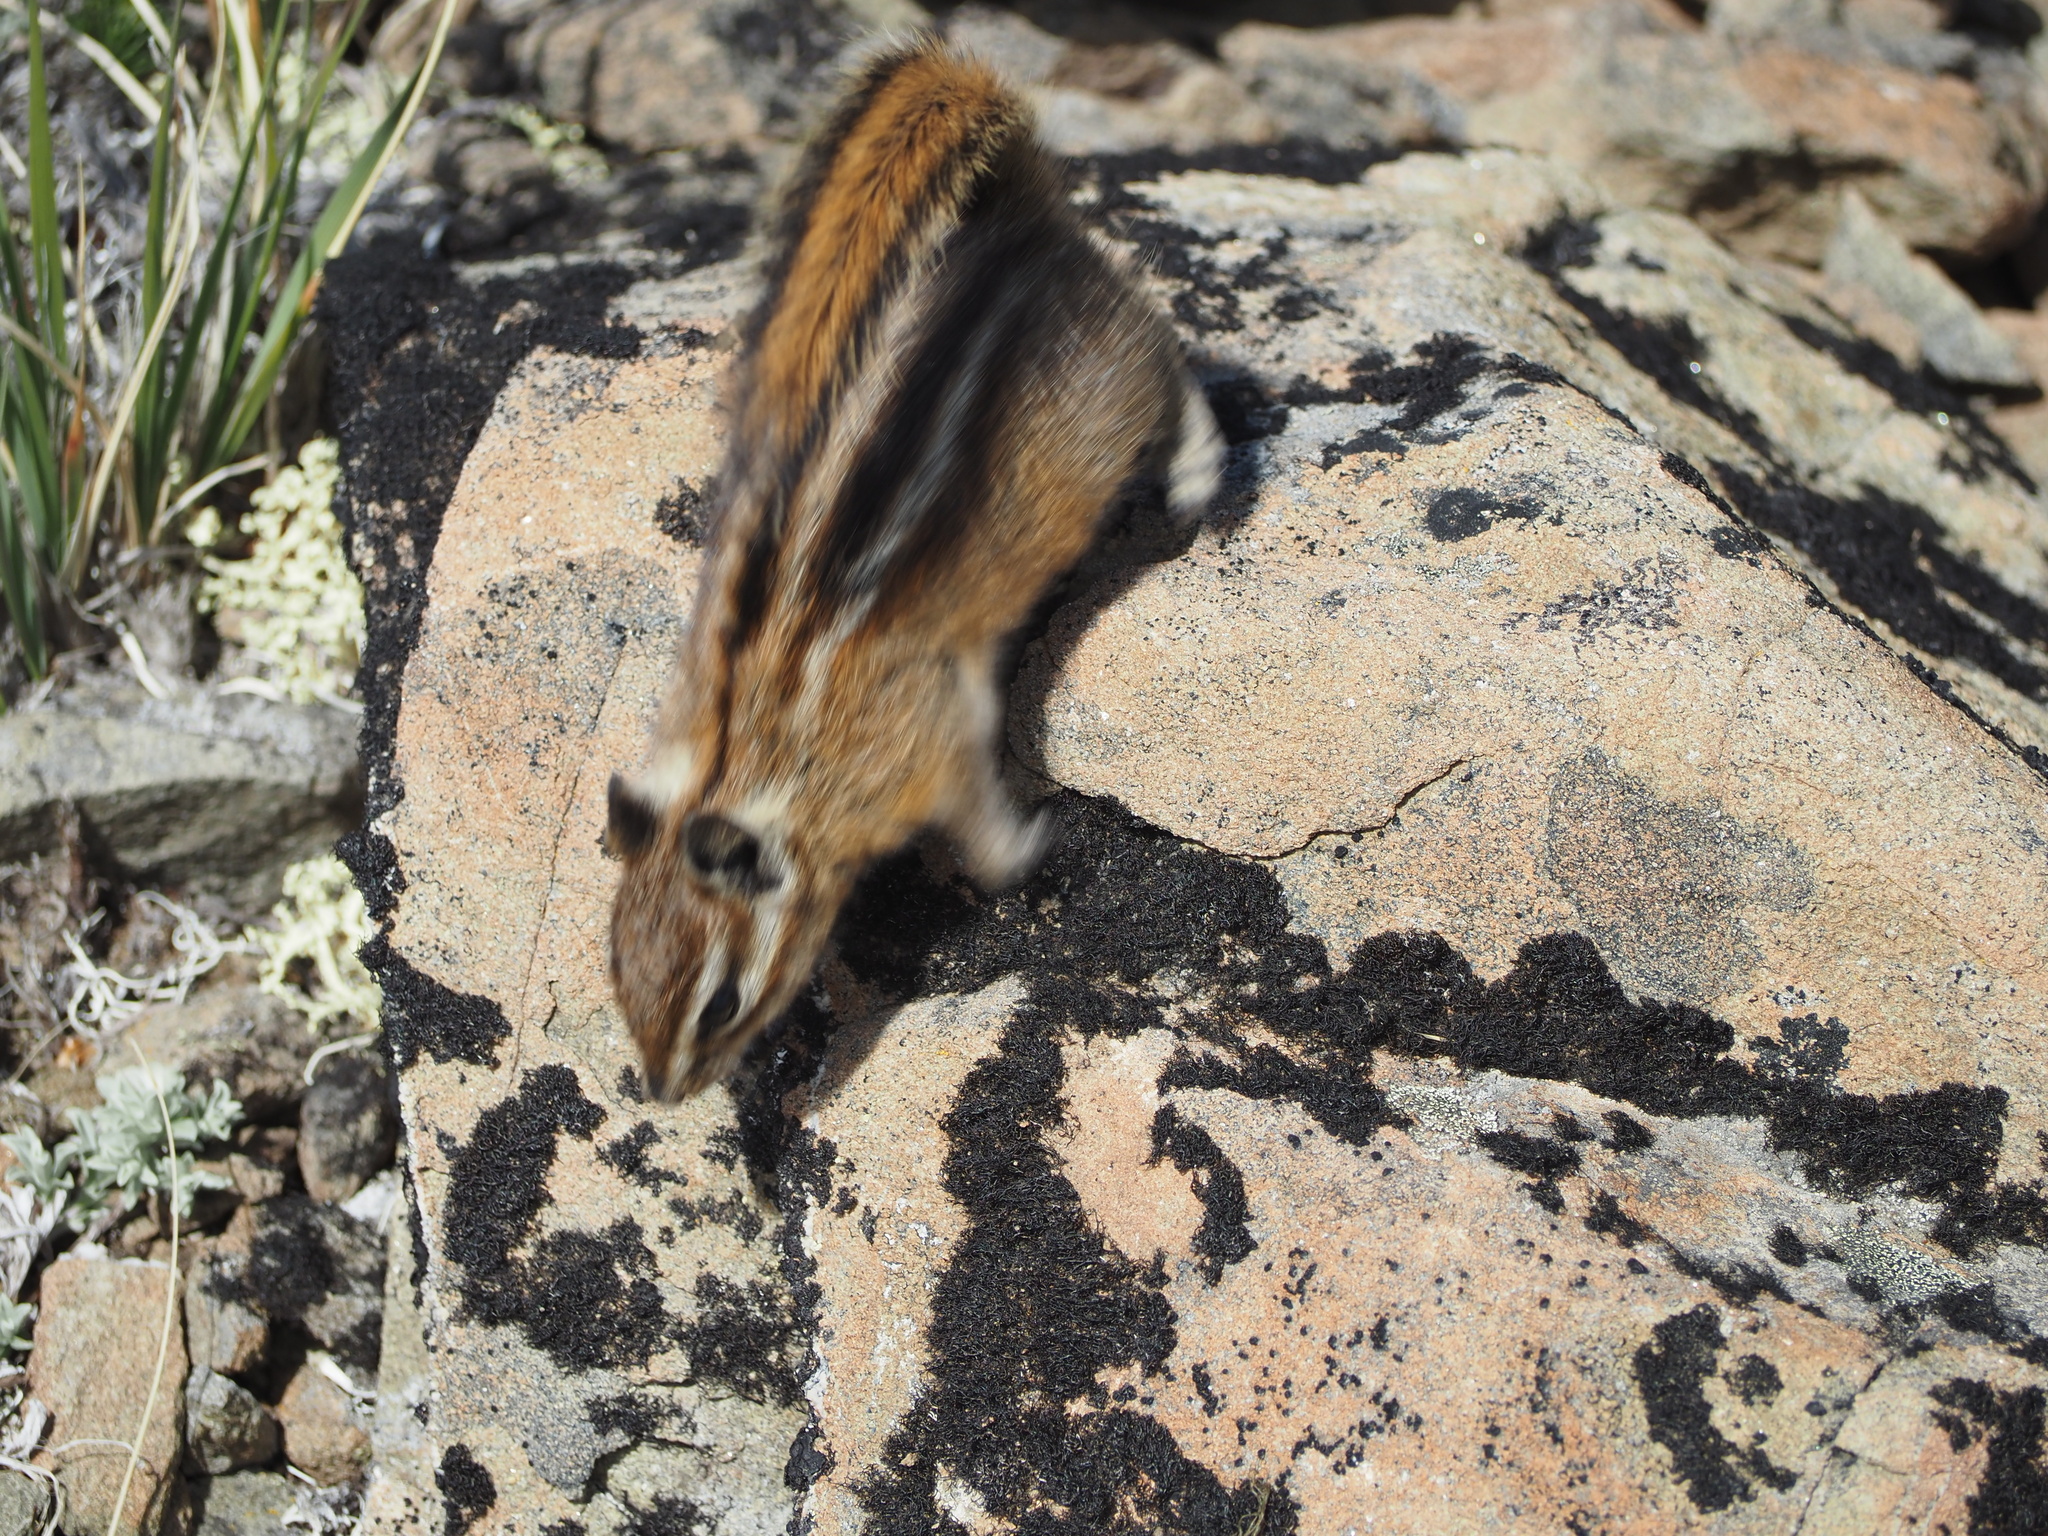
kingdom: Animalia
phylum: Chordata
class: Mammalia
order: Rodentia
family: Sciuridae
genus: Tamias
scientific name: Tamias amoenus
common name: Yellow-pine chipmunk
